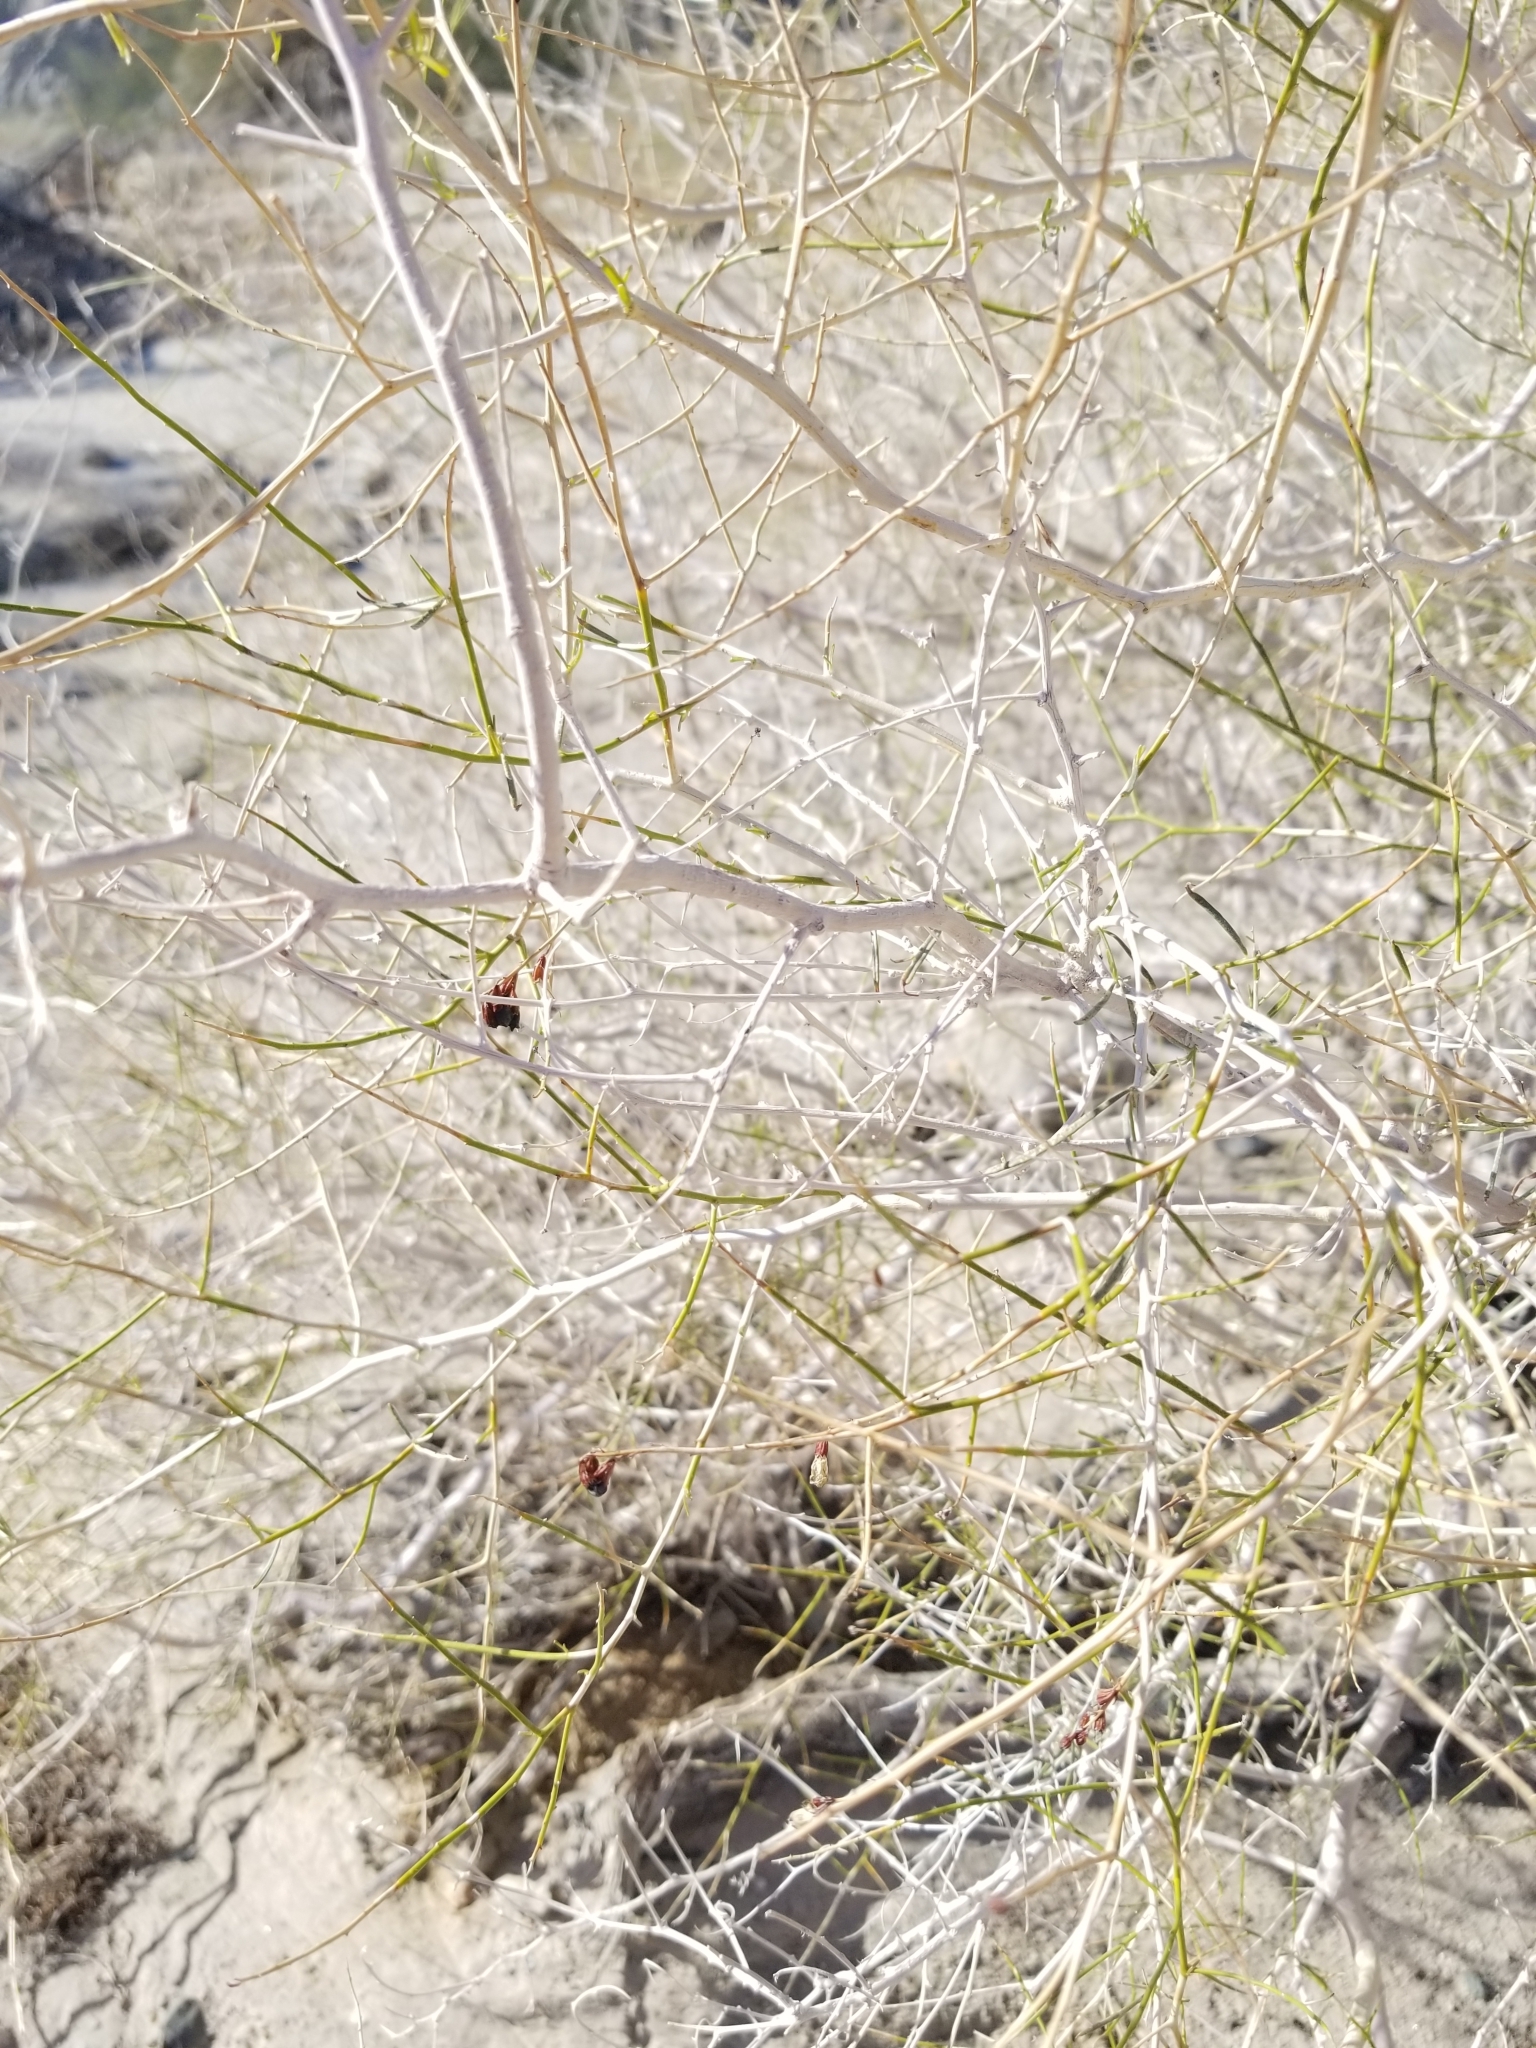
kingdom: Plantae
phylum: Tracheophyta
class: Magnoliopsida
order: Fabales
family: Fabaceae
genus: Psorothamnus
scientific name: Psorothamnus schottii
